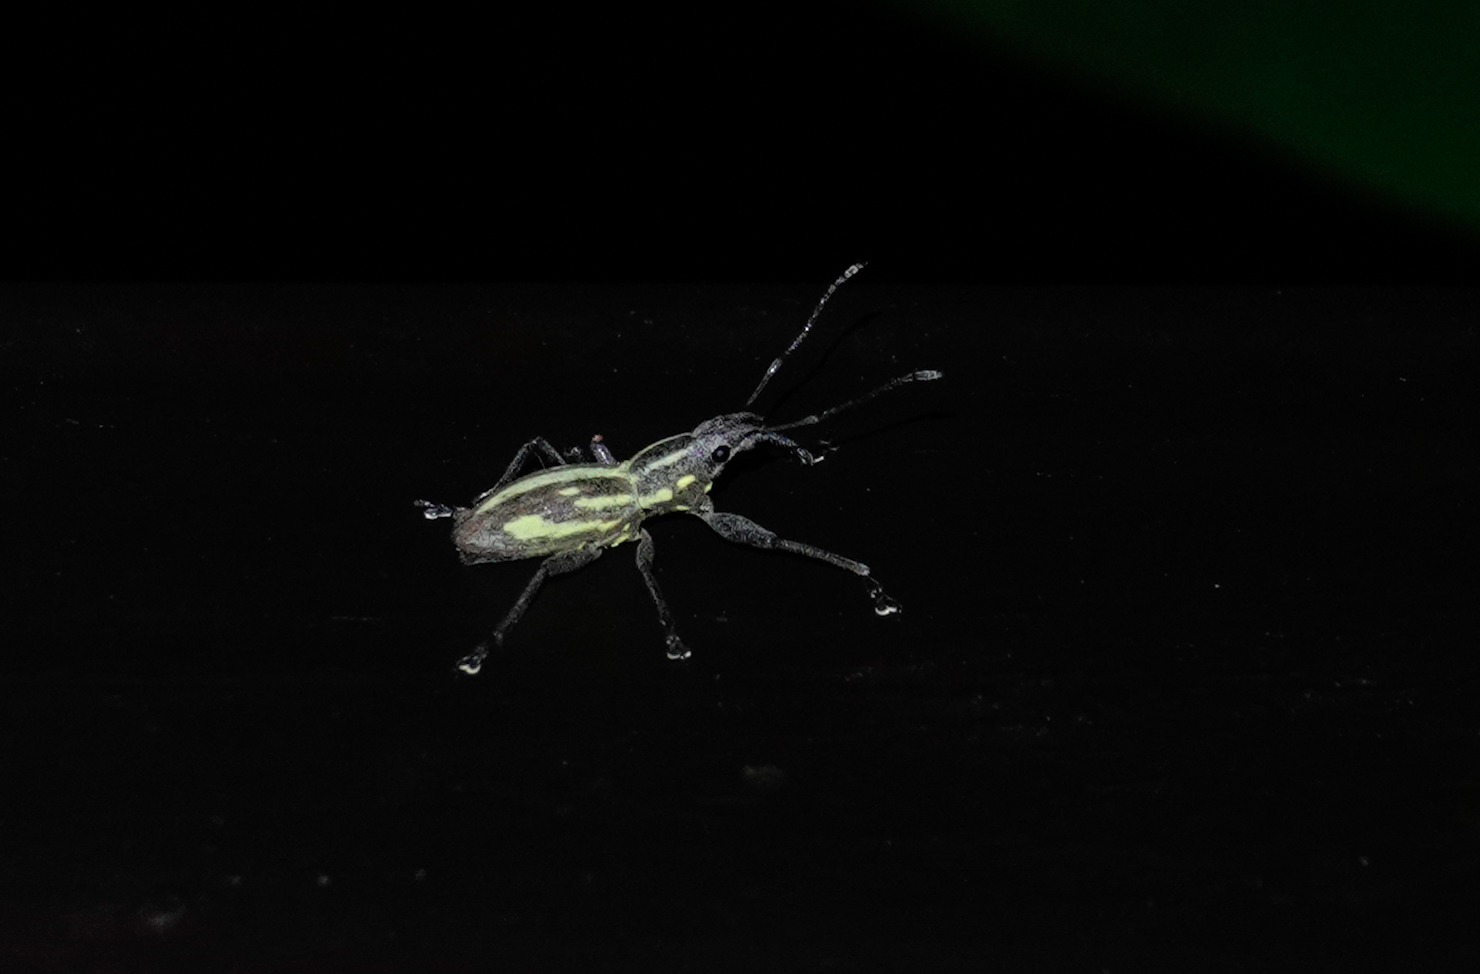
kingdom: Animalia
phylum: Arthropoda
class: Insecta
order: Coleoptera
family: Curculionidae
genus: Naupactus
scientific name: Naupactus xanthographus
